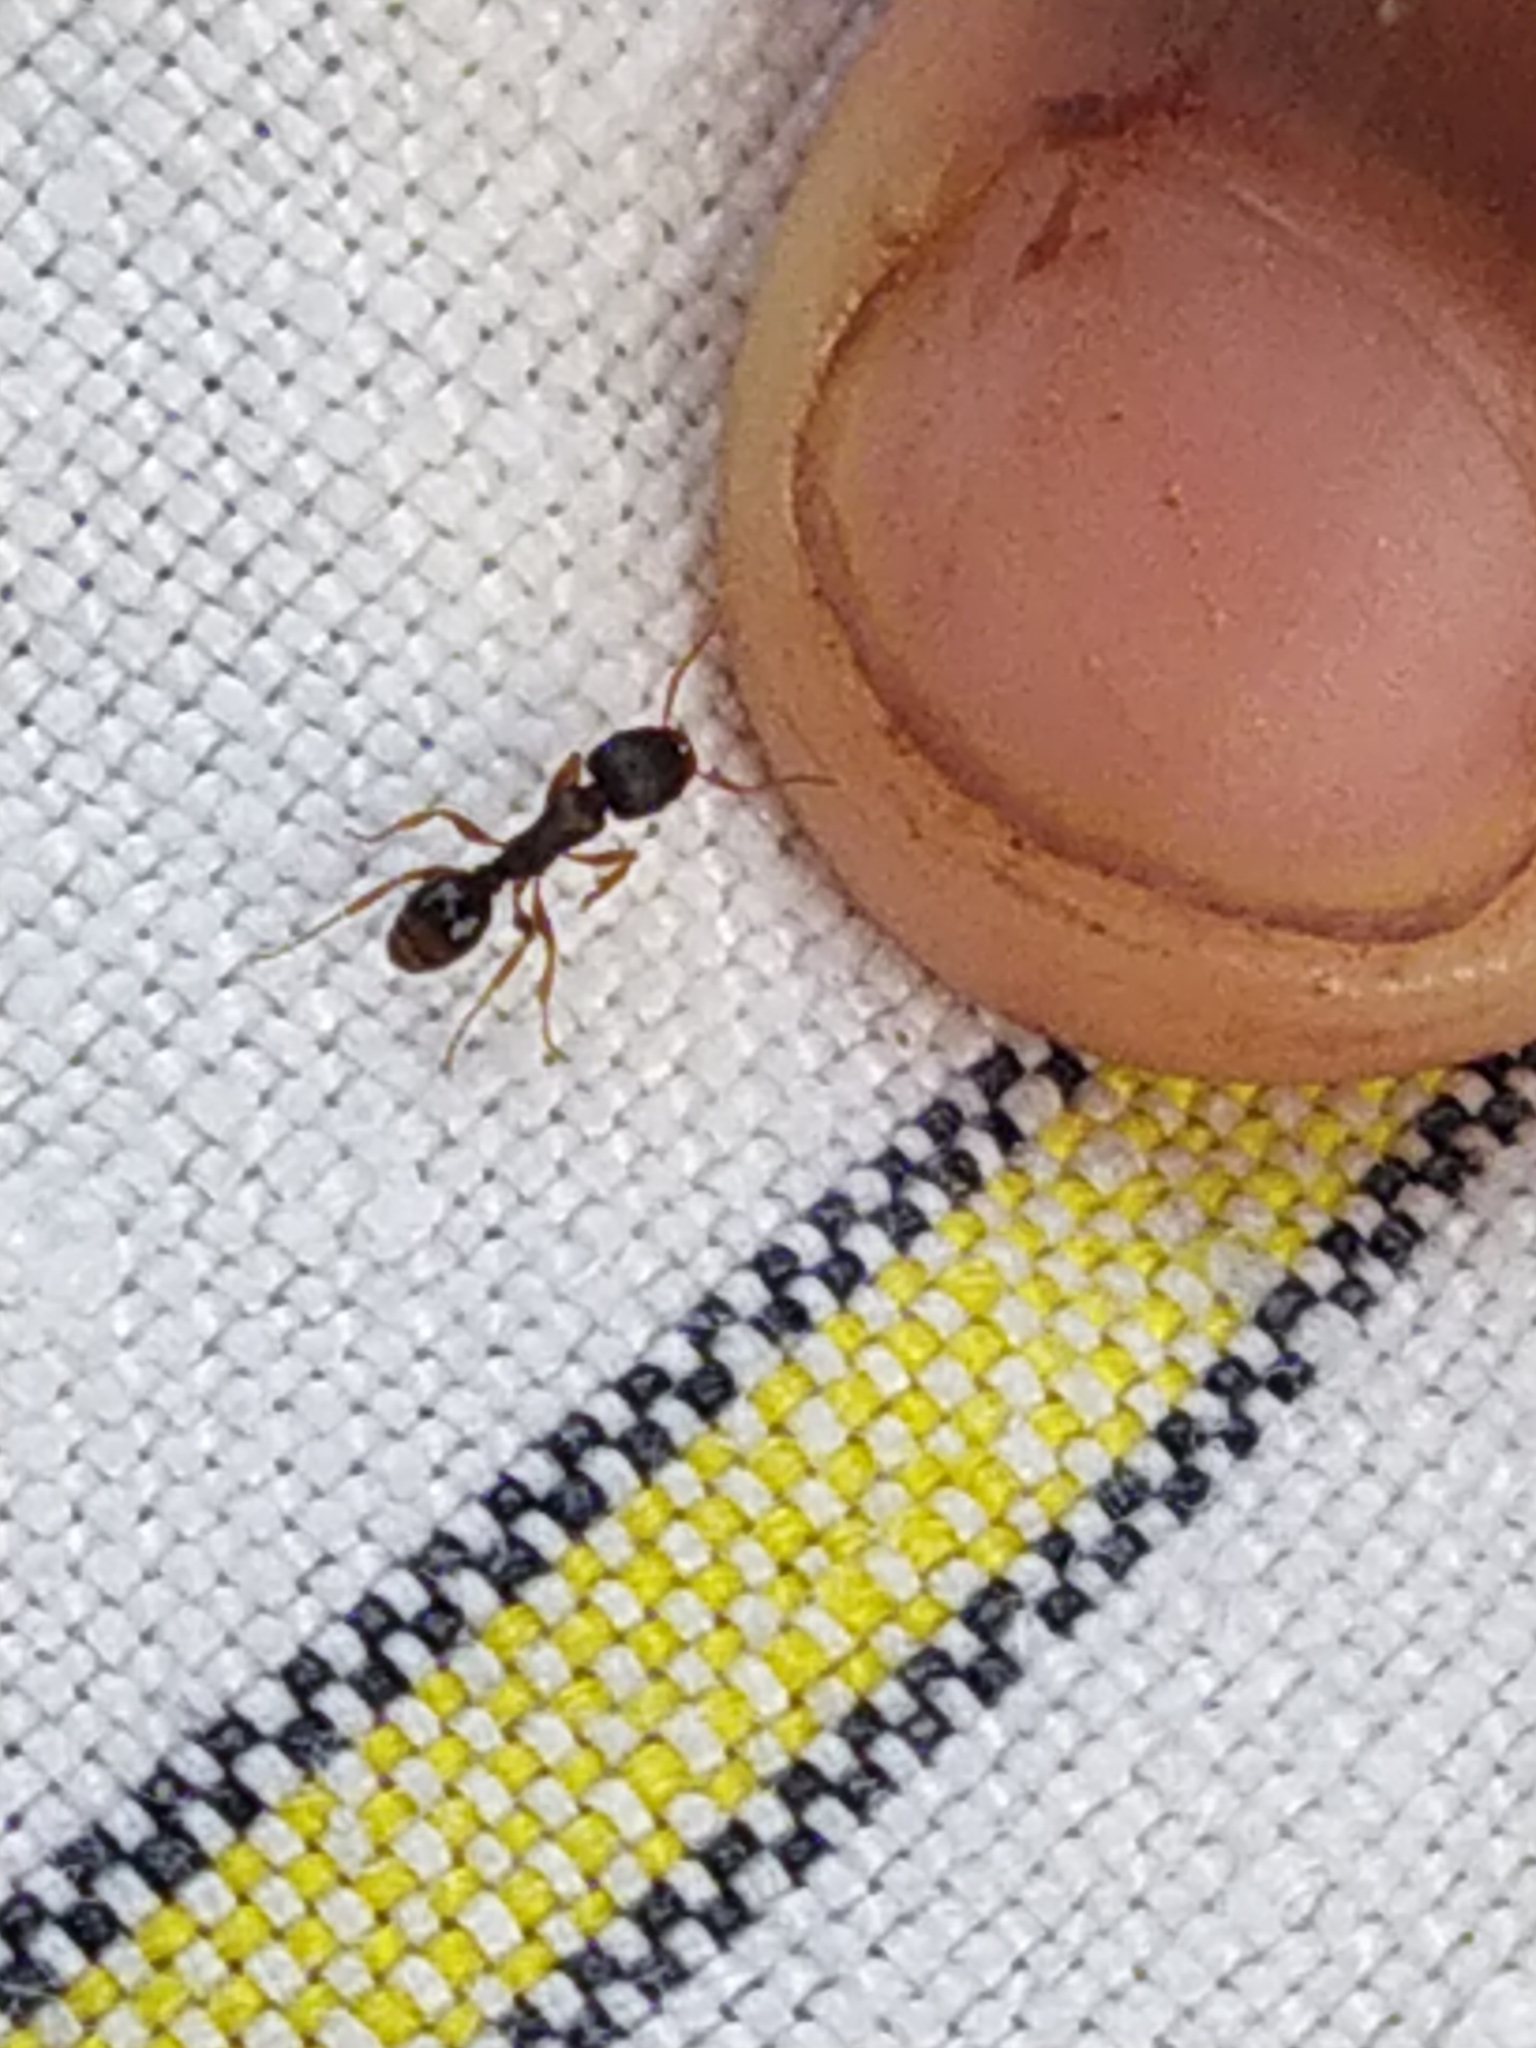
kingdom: Animalia
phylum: Arthropoda
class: Insecta
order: Hymenoptera
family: Formicidae
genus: Tetramorium
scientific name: Tetramorium immigrans
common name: Pavement ant
